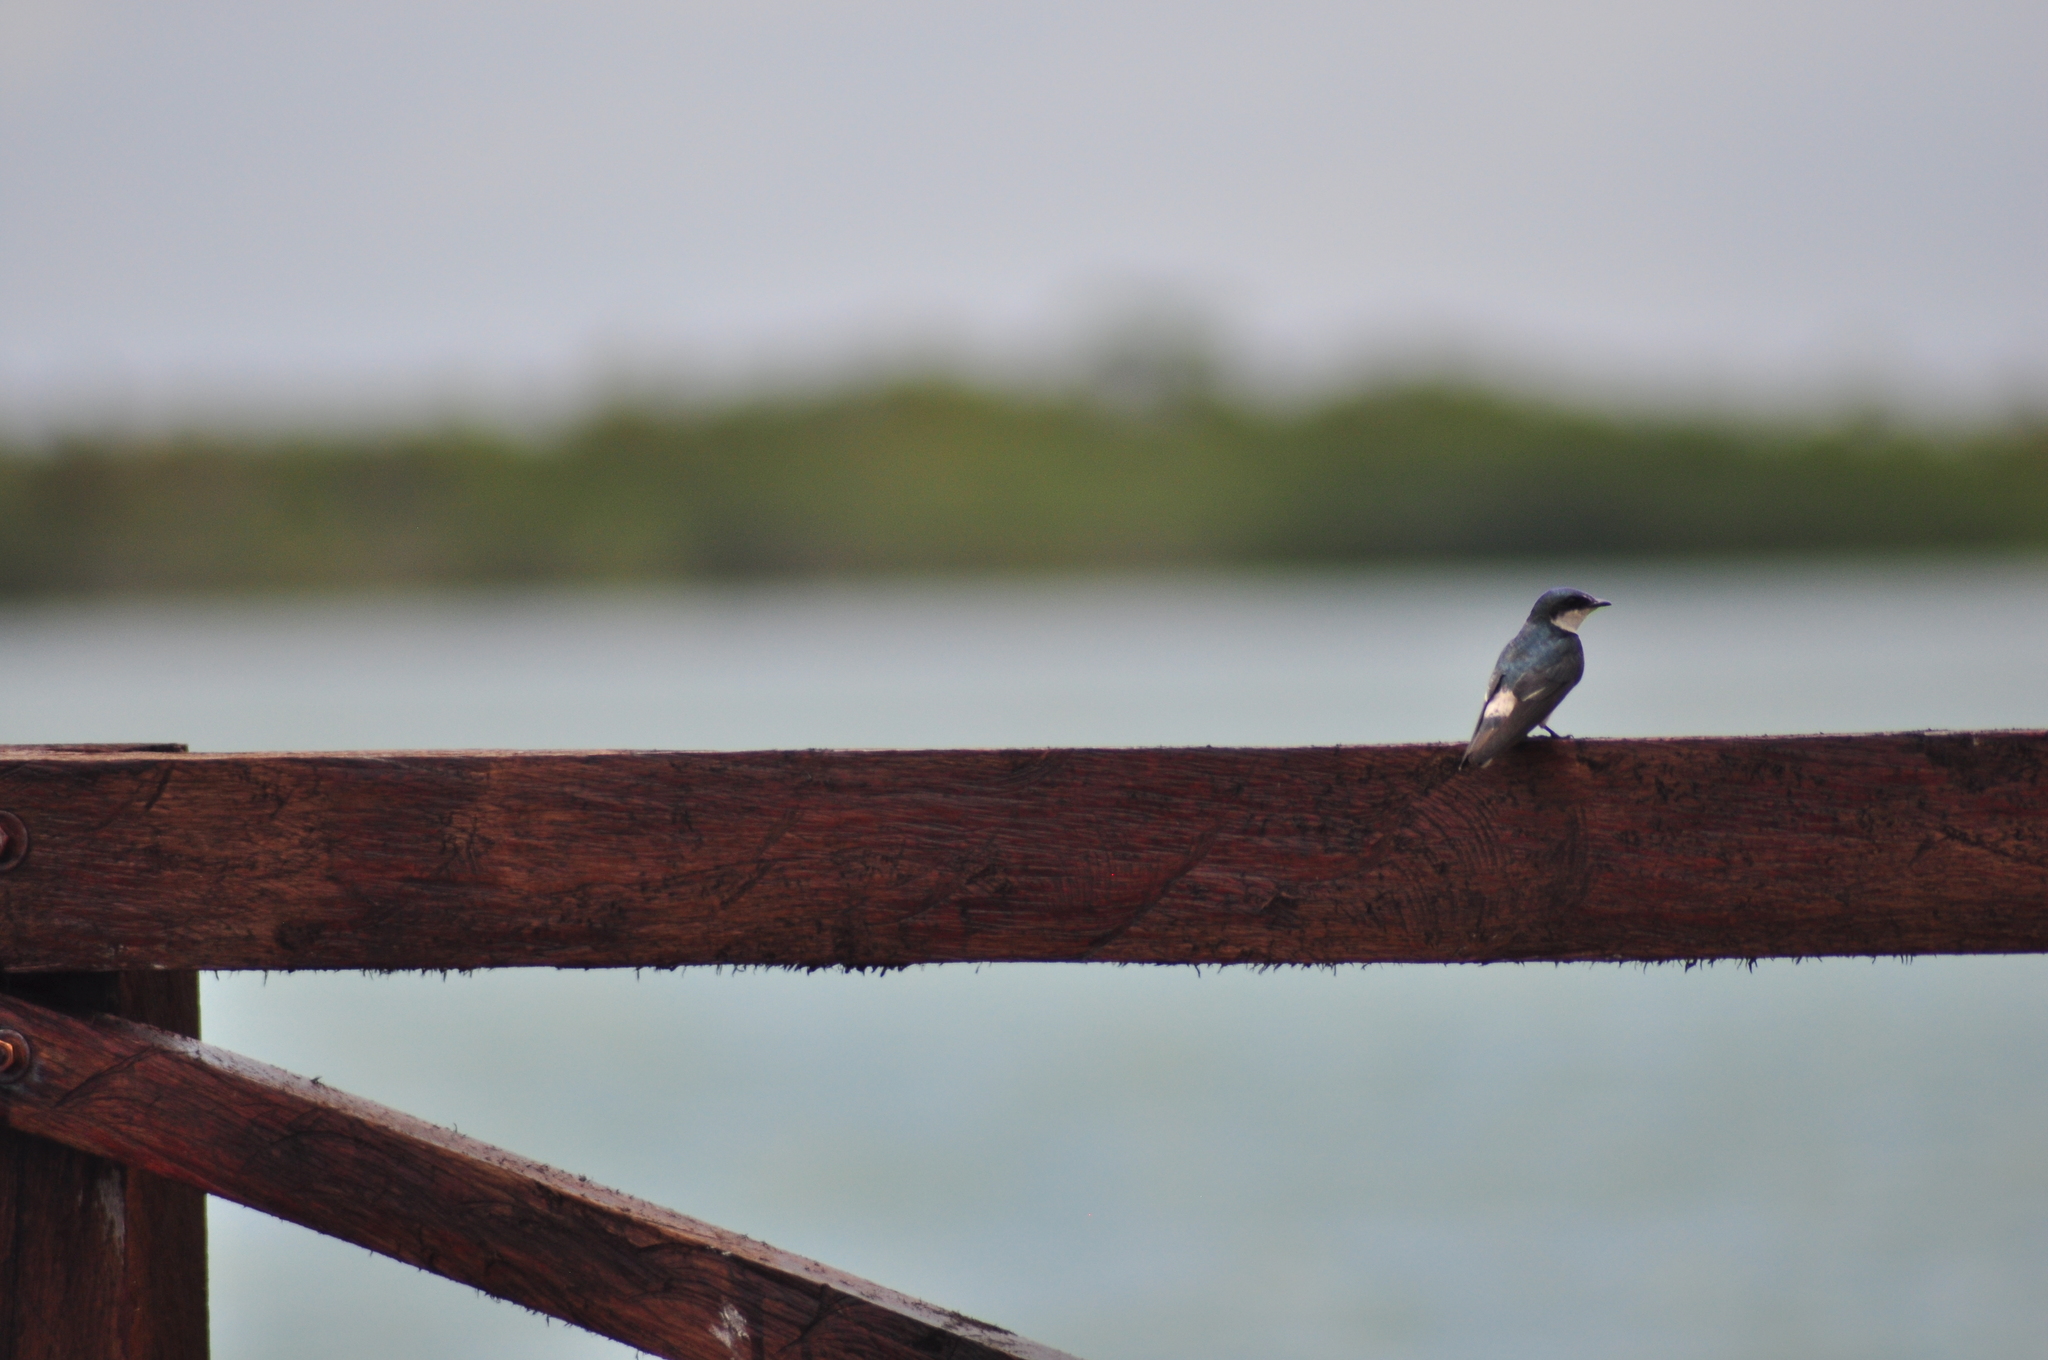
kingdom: Animalia
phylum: Chordata
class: Aves
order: Passeriformes
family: Hirundinidae
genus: Tachycineta
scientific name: Tachycineta albilinea
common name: Mangrove swallow
